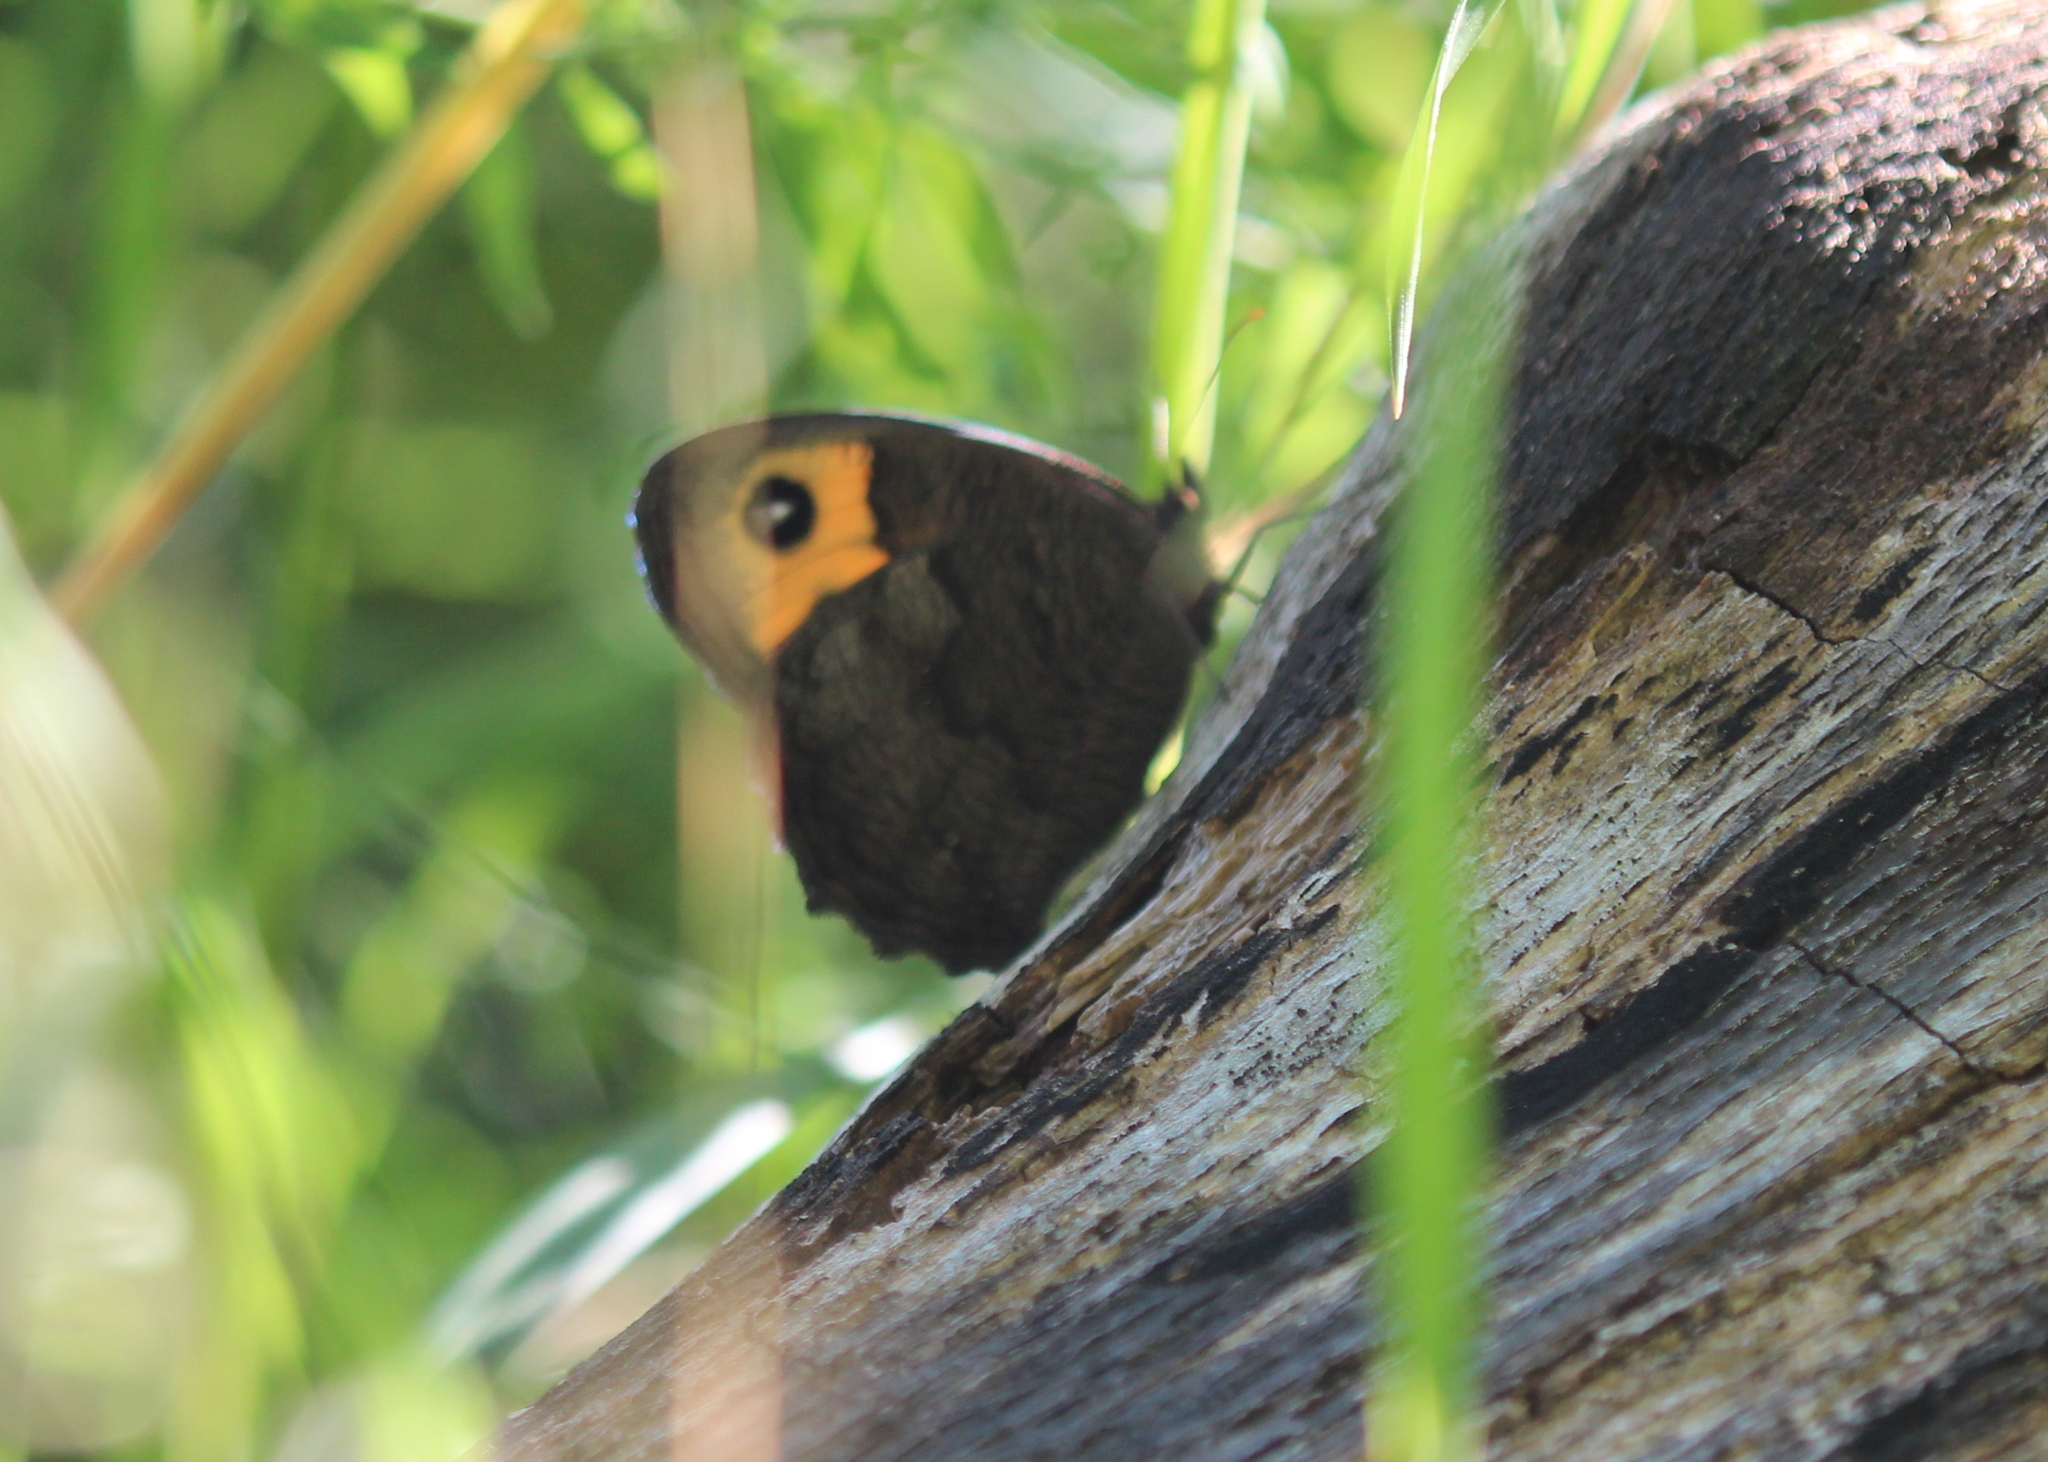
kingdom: Animalia
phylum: Arthropoda
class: Insecta
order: Lepidoptera
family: Nymphalidae
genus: Cercyonis
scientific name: Cercyonis pegala
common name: Common wood-nymph
